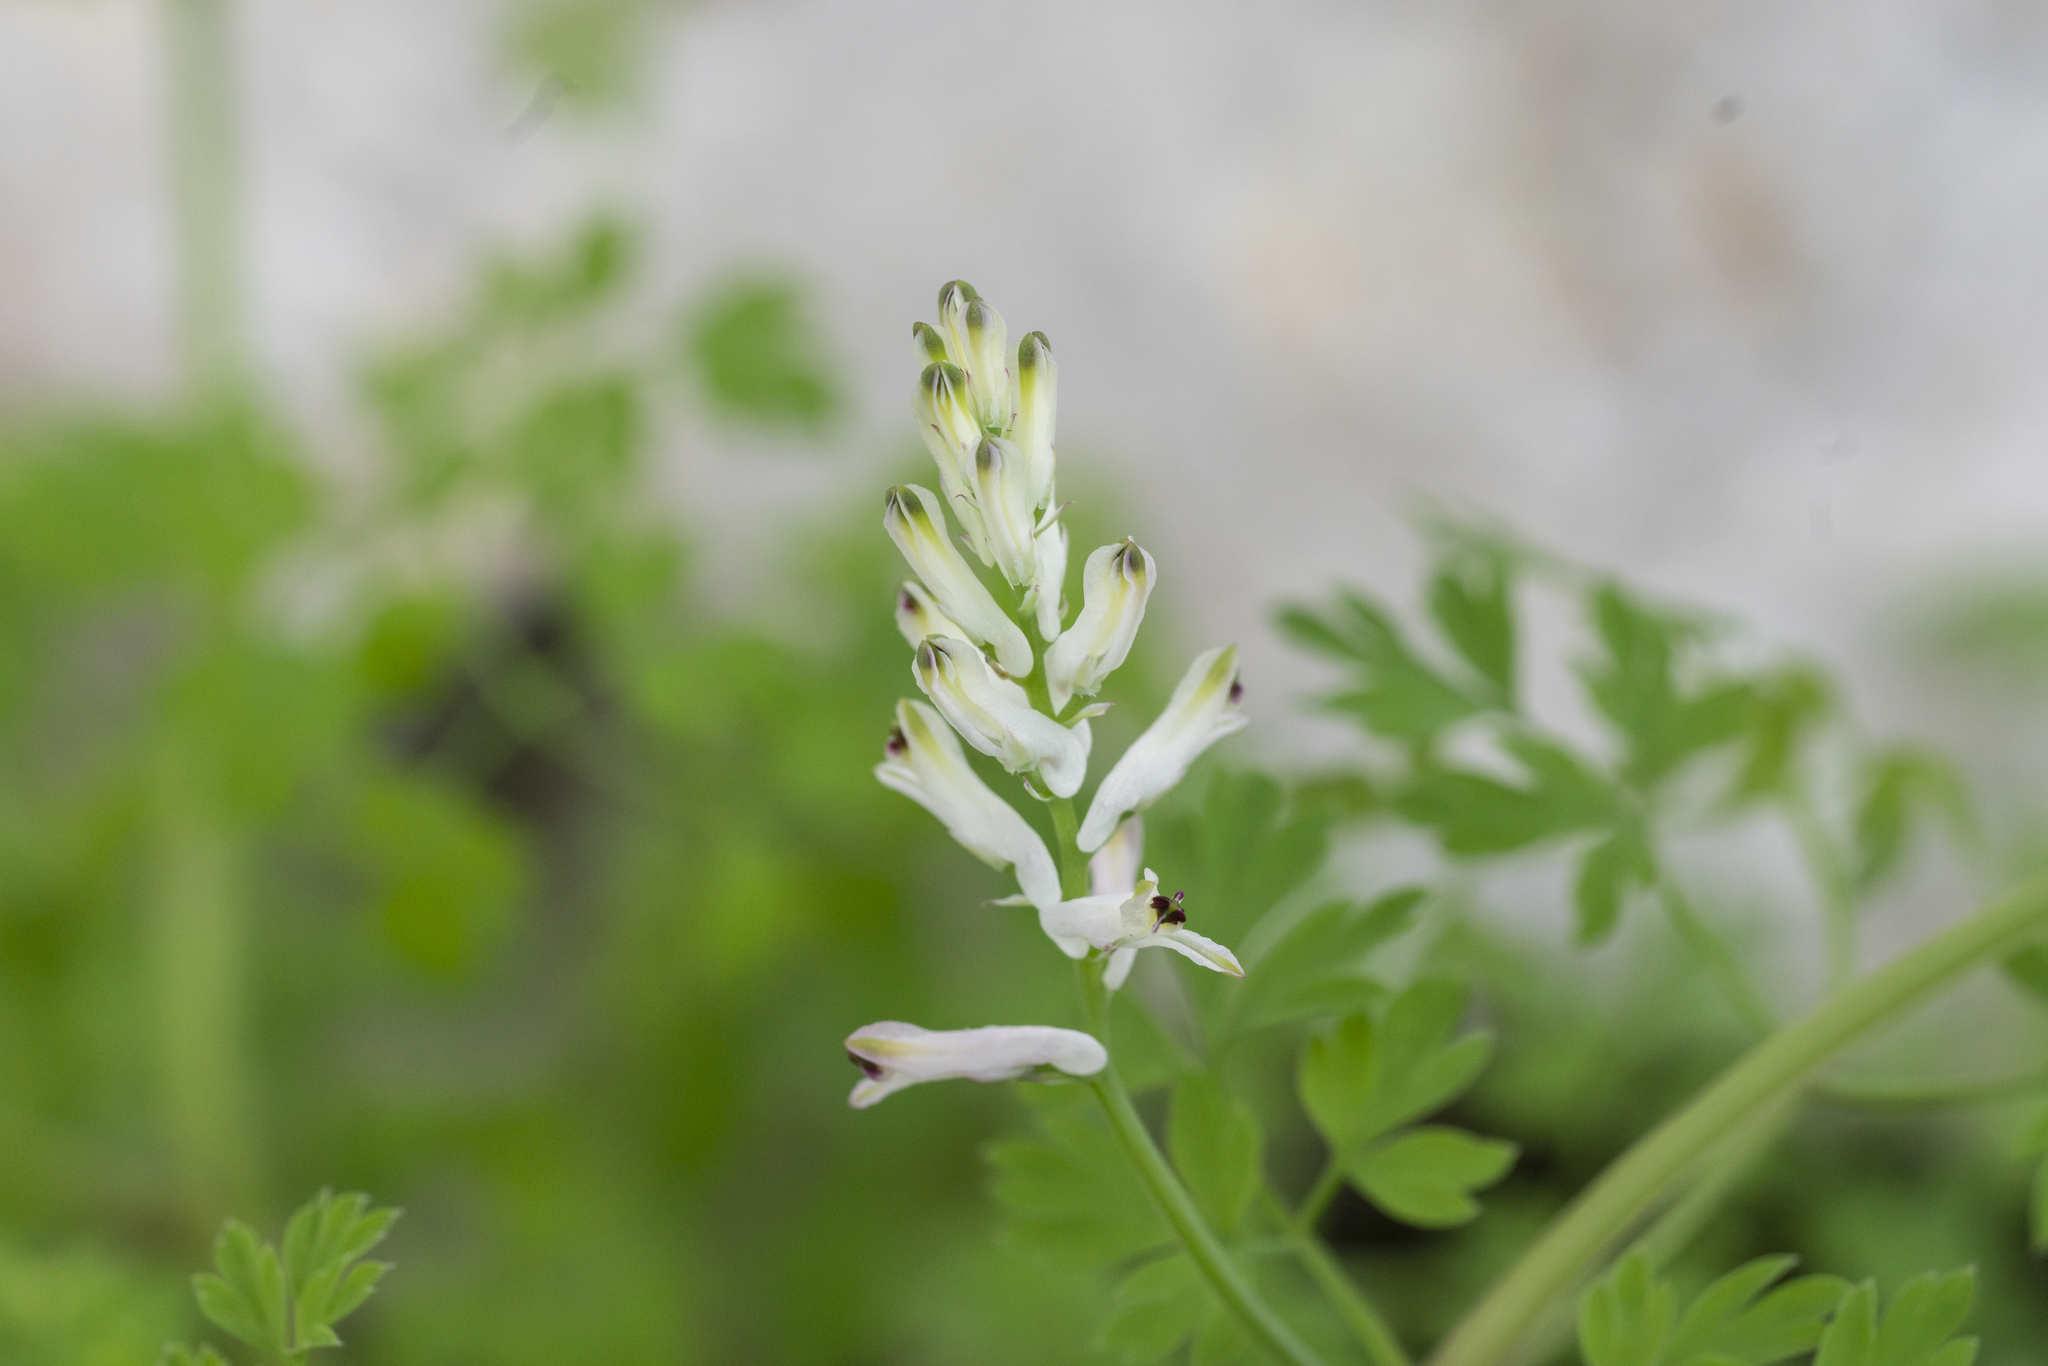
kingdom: Plantae
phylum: Tracheophyta
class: Magnoliopsida
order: Ranunculales
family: Papaveraceae
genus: Fumaria
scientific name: Fumaria judaica
